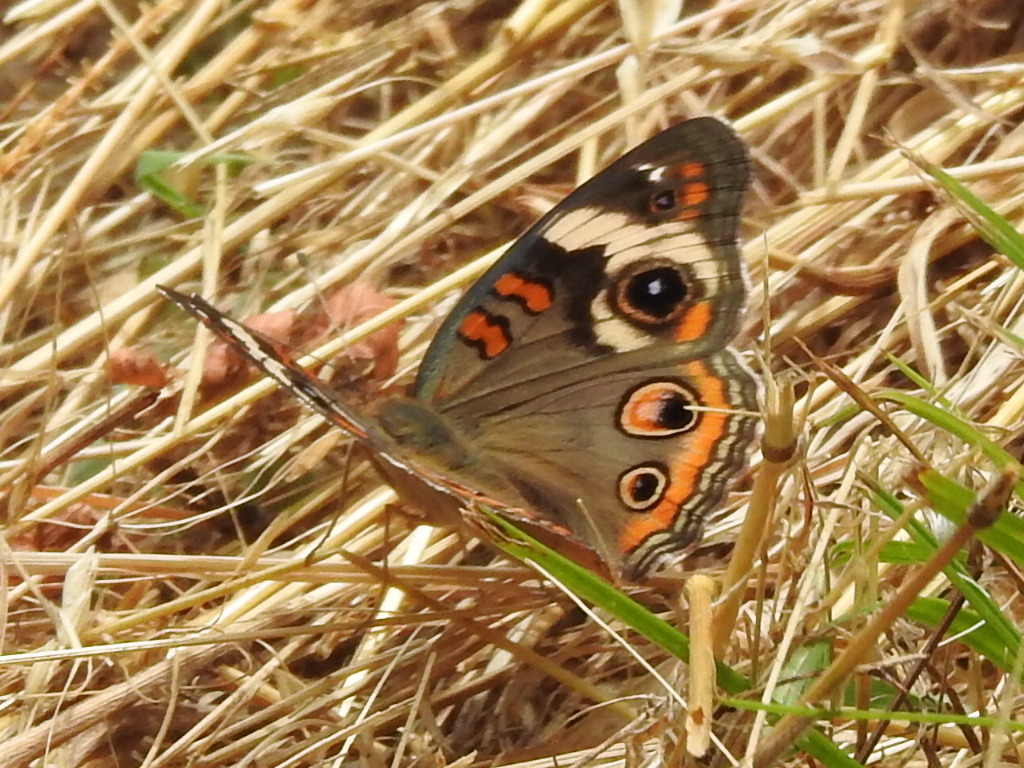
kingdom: Animalia
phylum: Arthropoda
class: Insecta
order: Lepidoptera
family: Nymphalidae
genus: Junonia
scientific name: Junonia coenia
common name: Common buckeye
